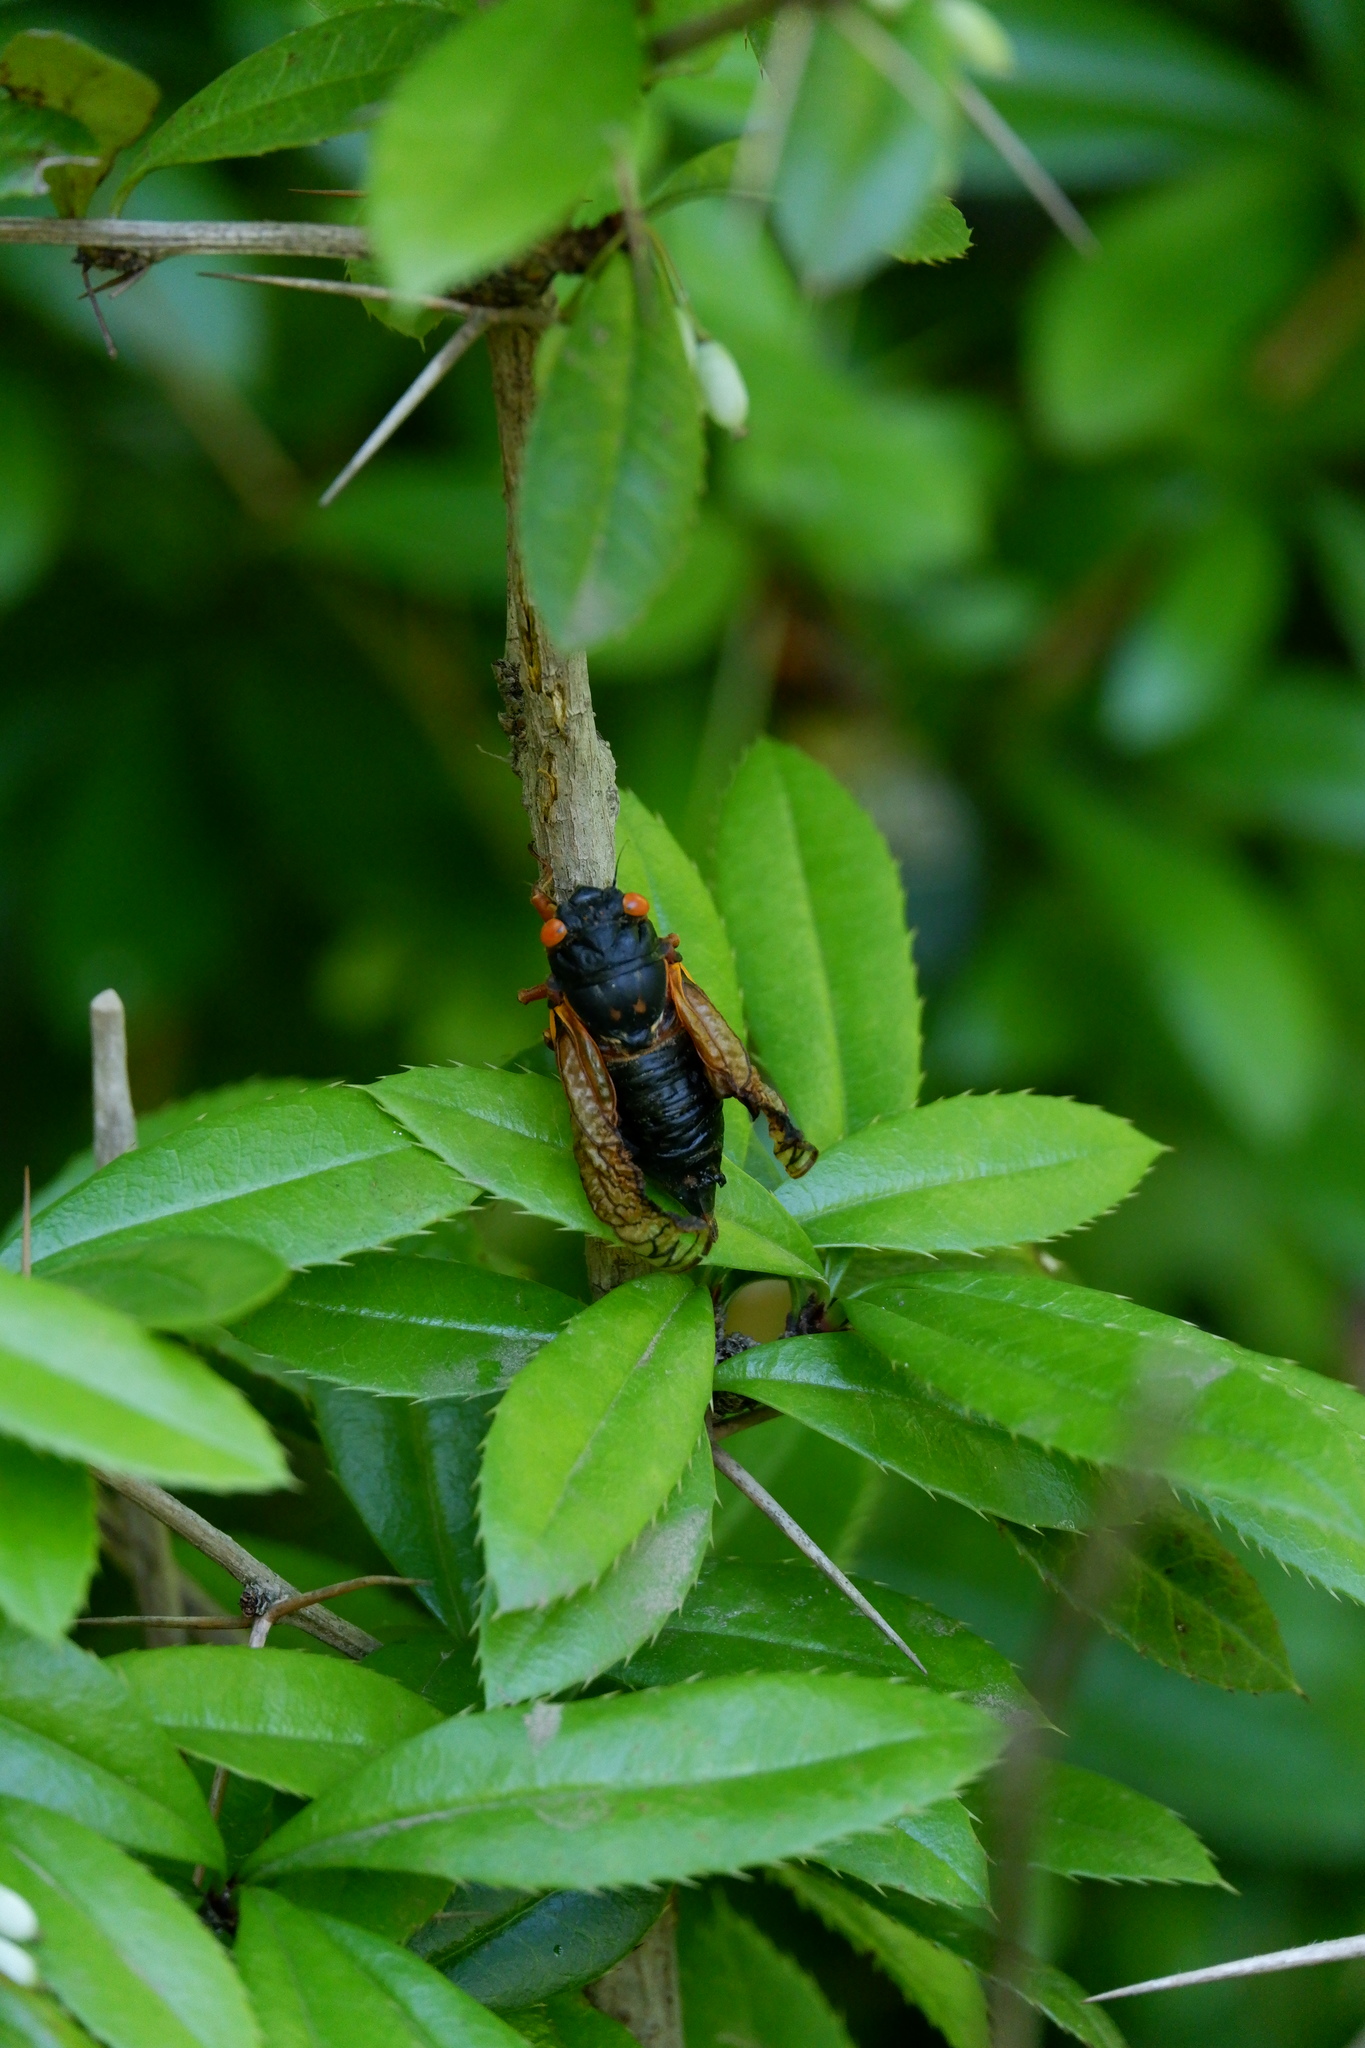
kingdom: Animalia
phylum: Arthropoda
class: Insecta
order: Hemiptera
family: Cicadidae
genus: Magicicada
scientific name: Magicicada
